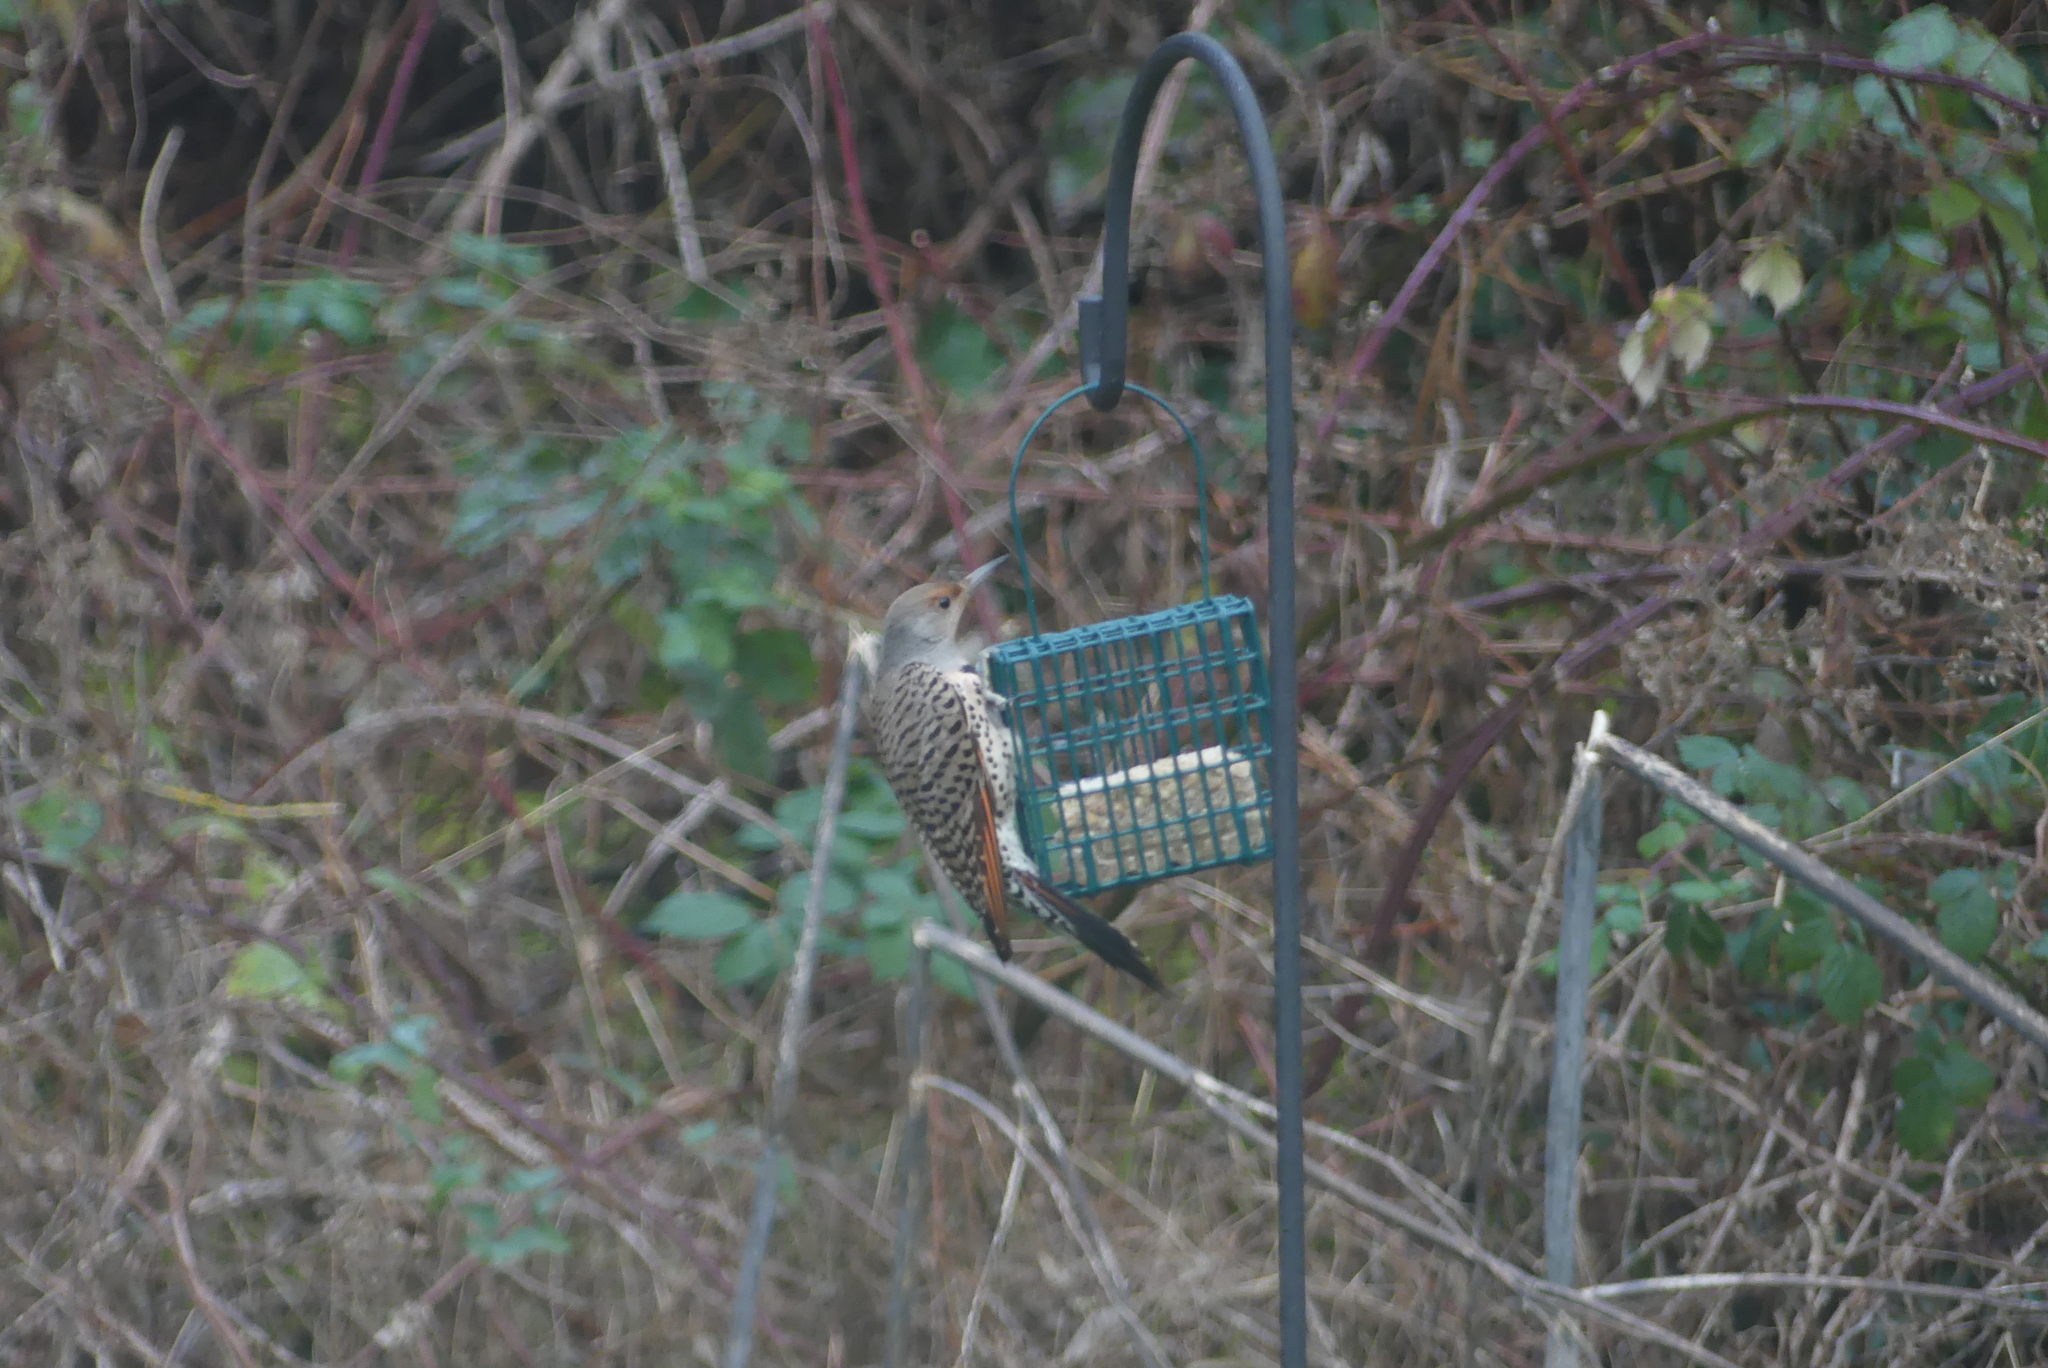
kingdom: Animalia
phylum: Chordata
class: Aves
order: Piciformes
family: Picidae
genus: Colaptes
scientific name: Colaptes auratus
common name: Northern flicker
